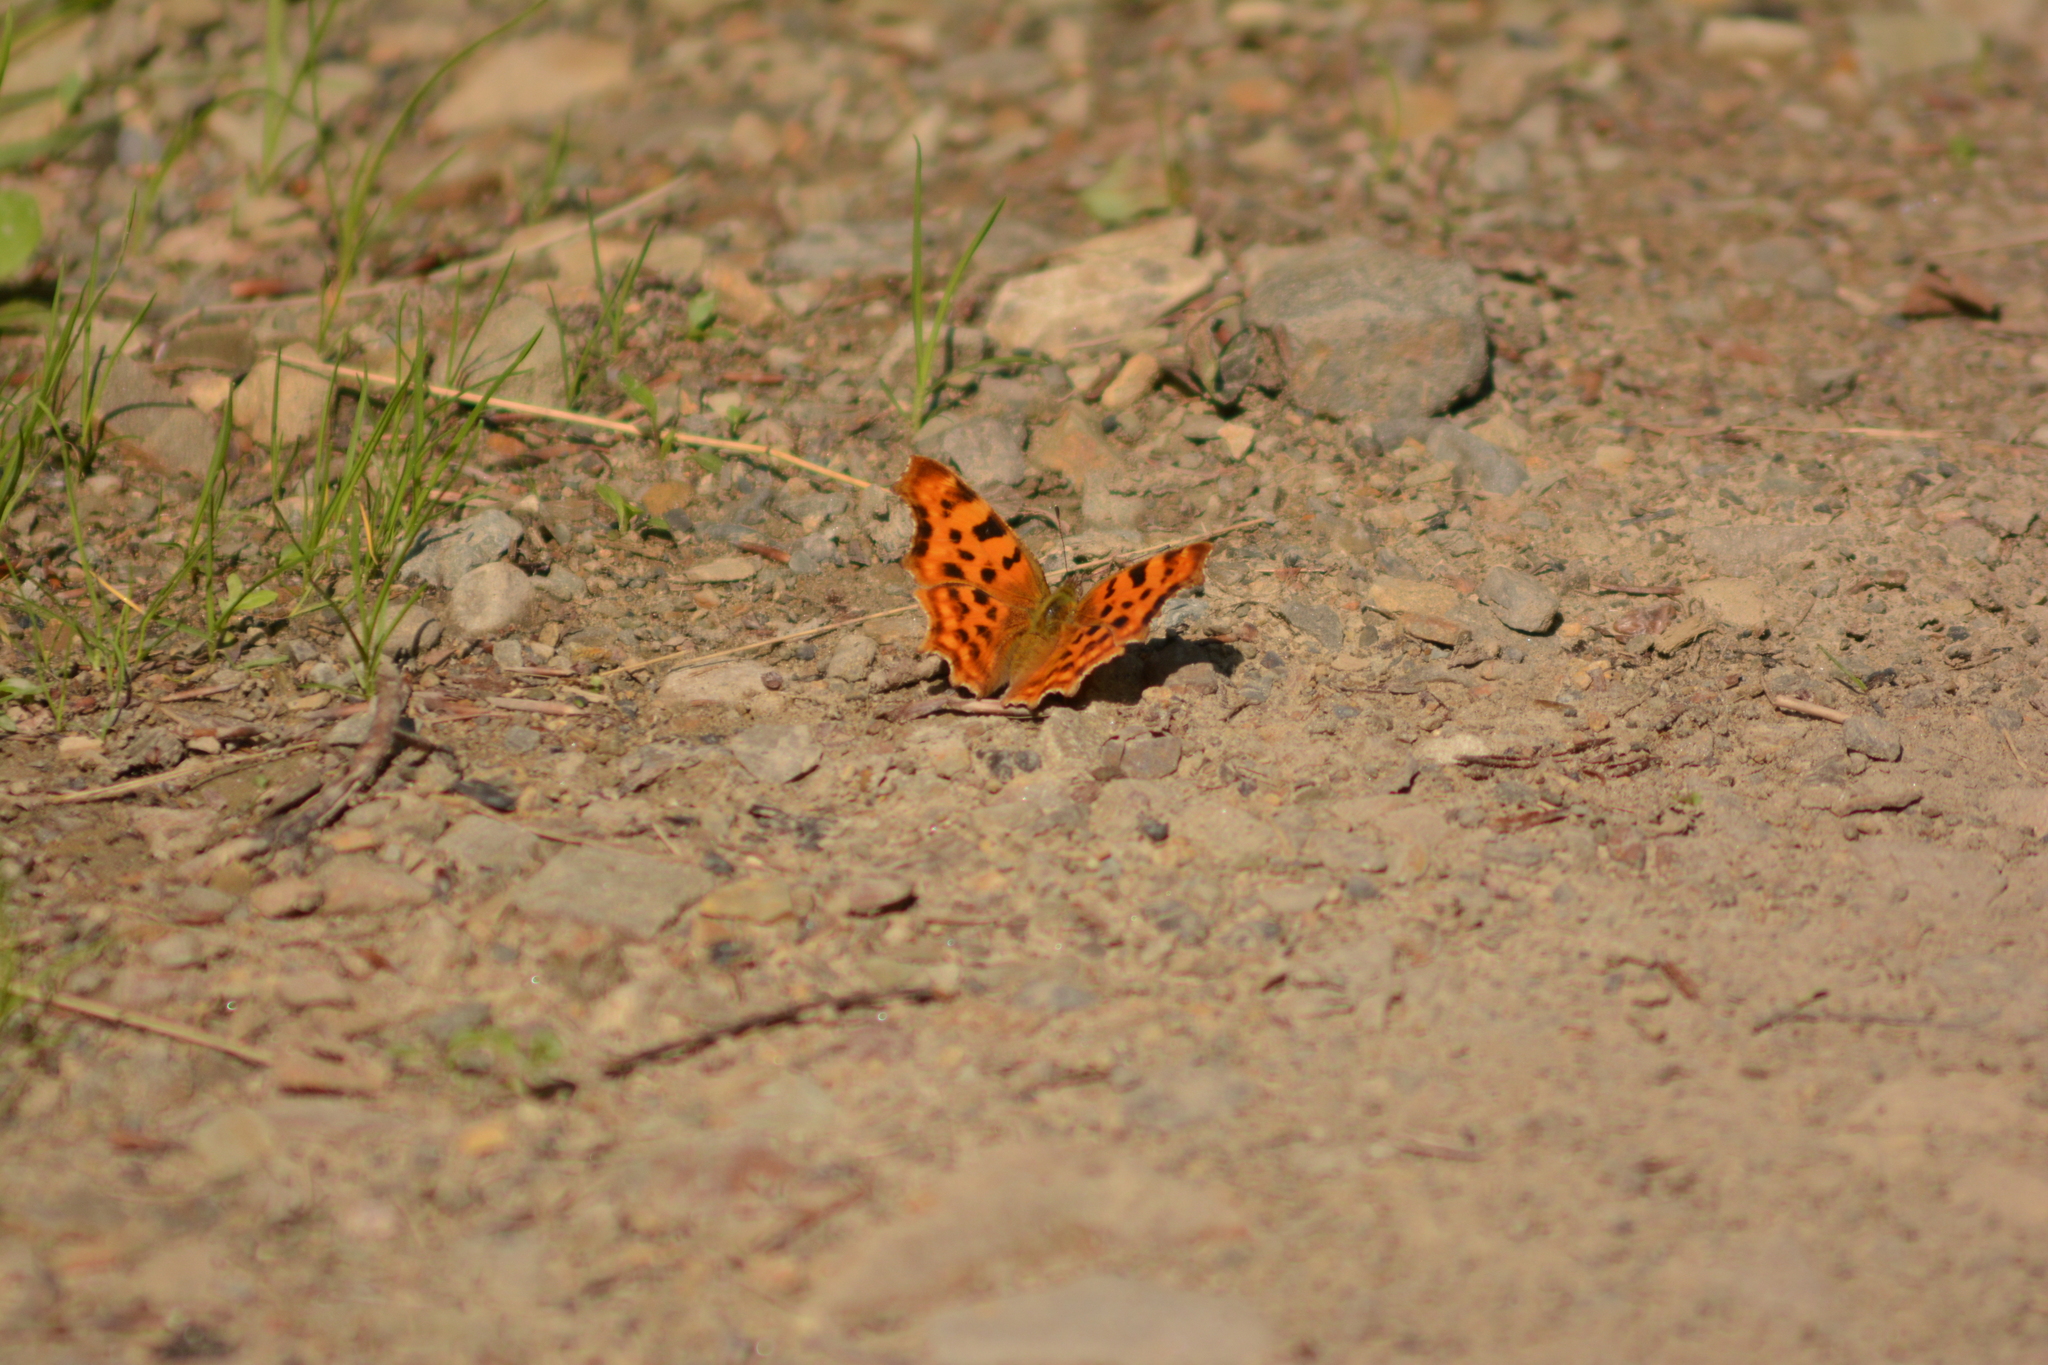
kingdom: Animalia
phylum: Arthropoda
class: Insecta
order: Lepidoptera
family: Nymphalidae
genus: Polygonia
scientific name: Polygonia c-album
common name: Comma
